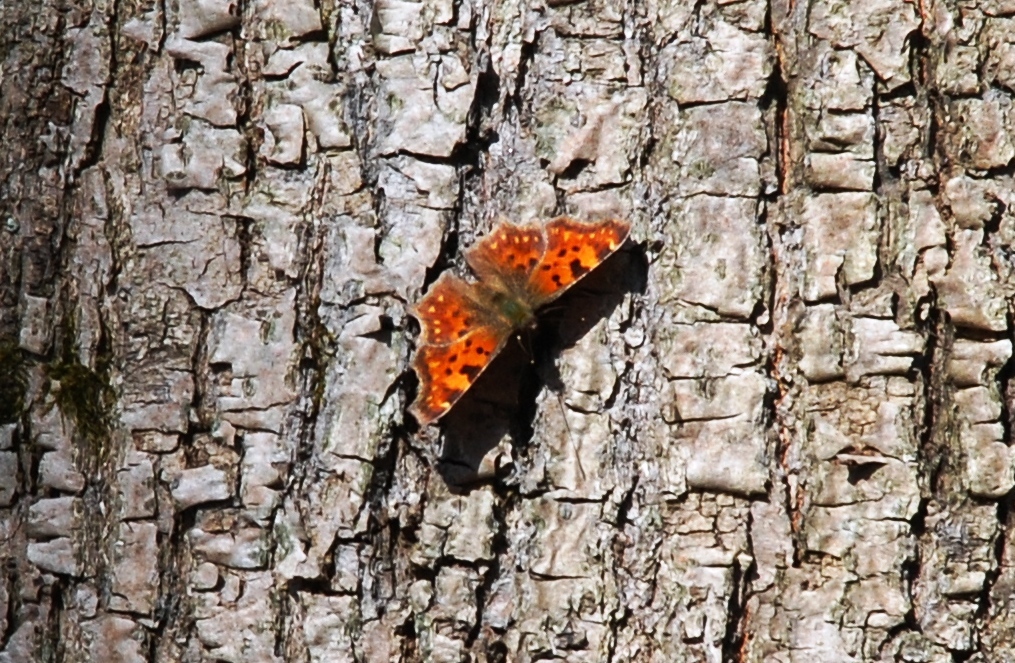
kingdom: Animalia
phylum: Arthropoda
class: Insecta
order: Lepidoptera
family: Nymphalidae
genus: Polygonia
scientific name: Polygonia c-album
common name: Comma
